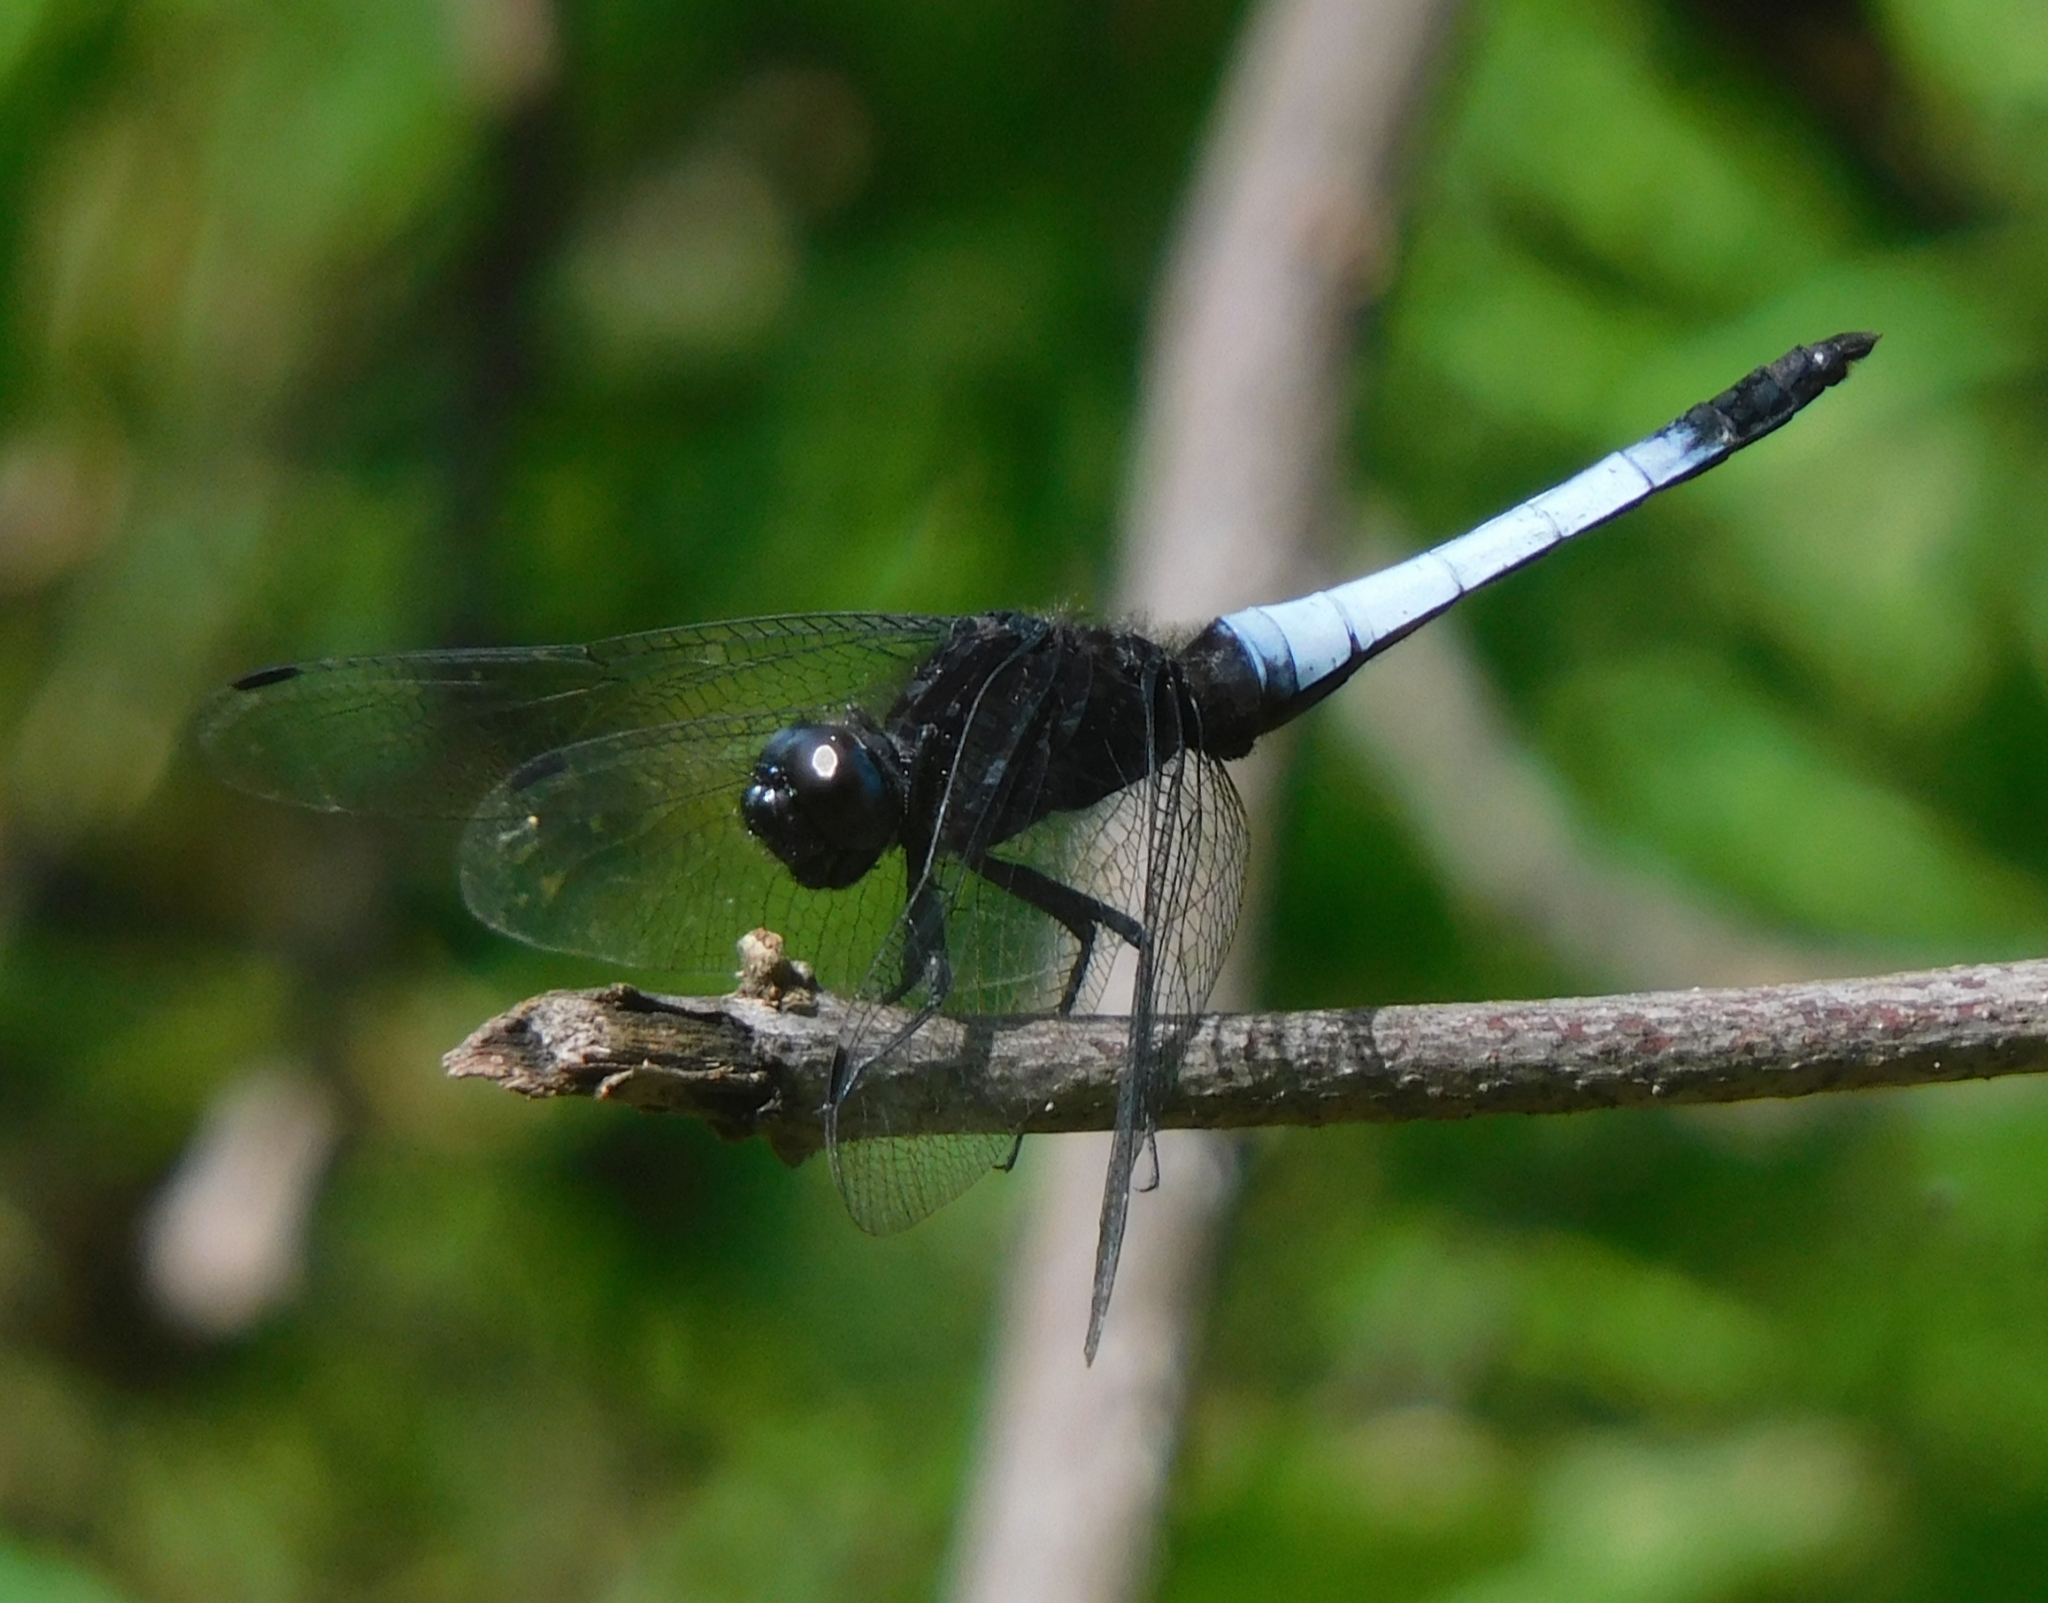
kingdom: Animalia
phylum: Arthropoda
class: Insecta
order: Odonata
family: Libellulidae
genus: Orthetrum
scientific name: Orthetrum triangulare
